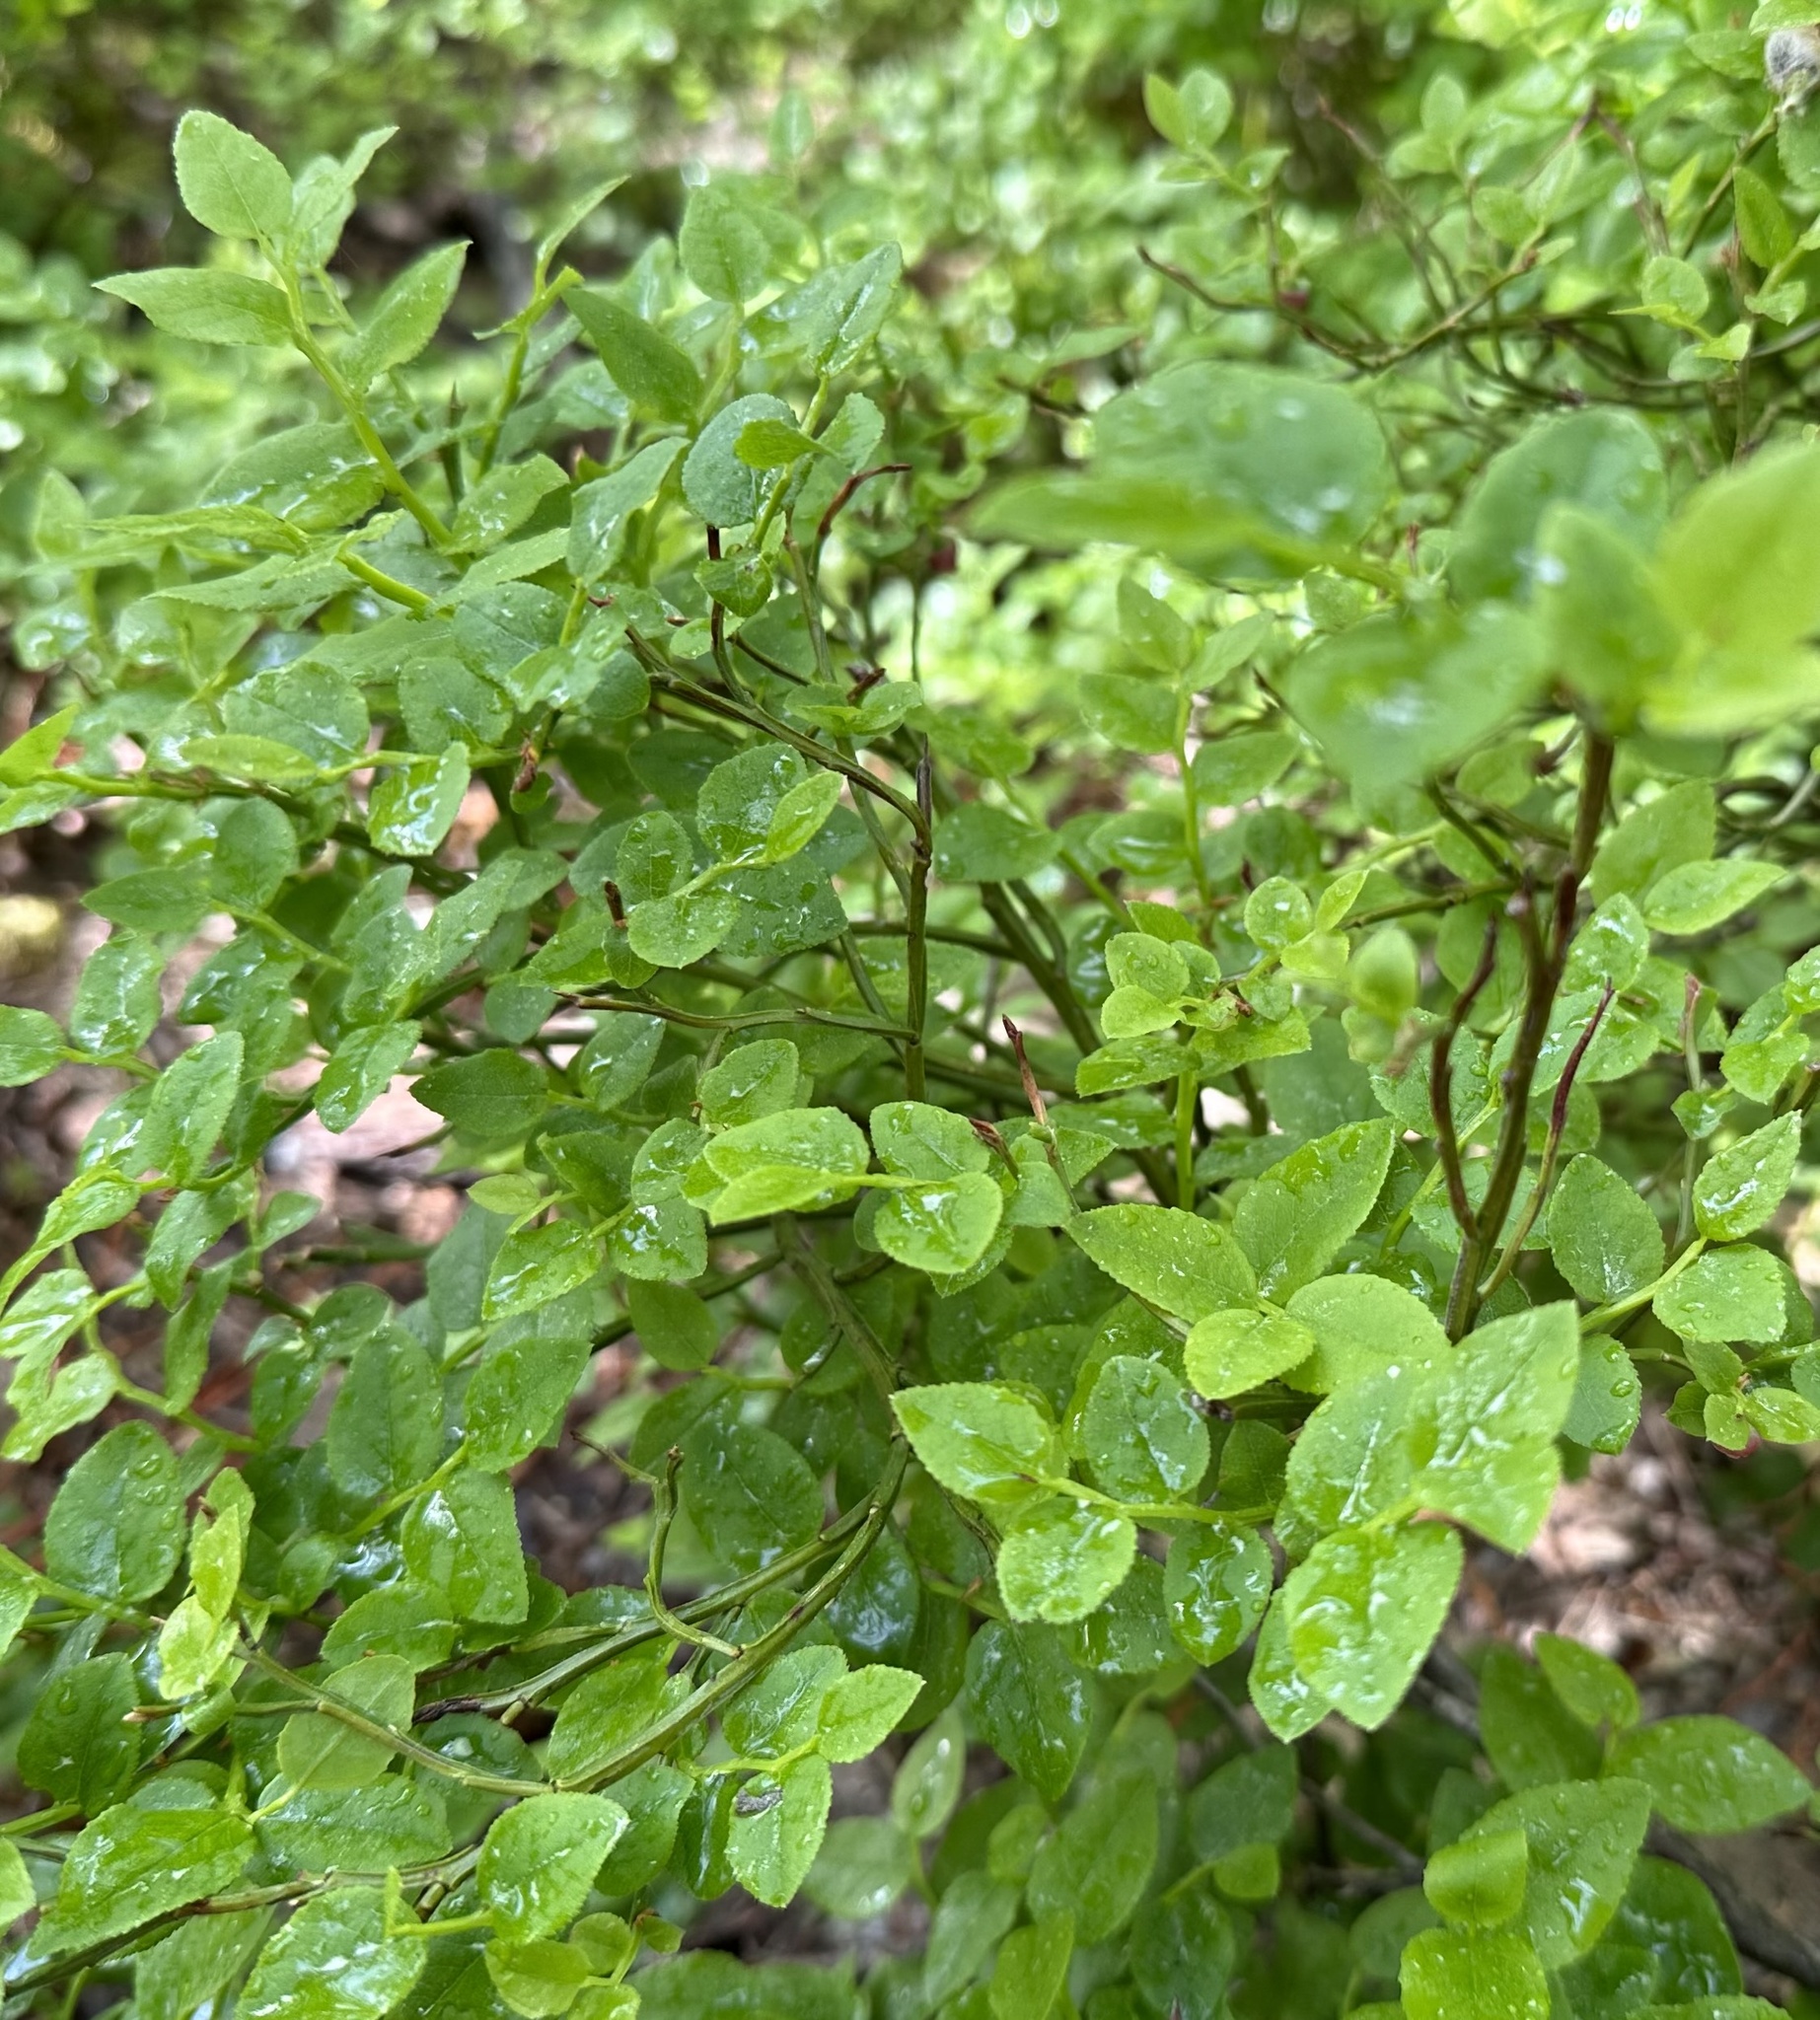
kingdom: Plantae
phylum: Tracheophyta
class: Magnoliopsida
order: Ericales
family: Ericaceae
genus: Vaccinium
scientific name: Vaccinium myrtillus
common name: Bilberry
